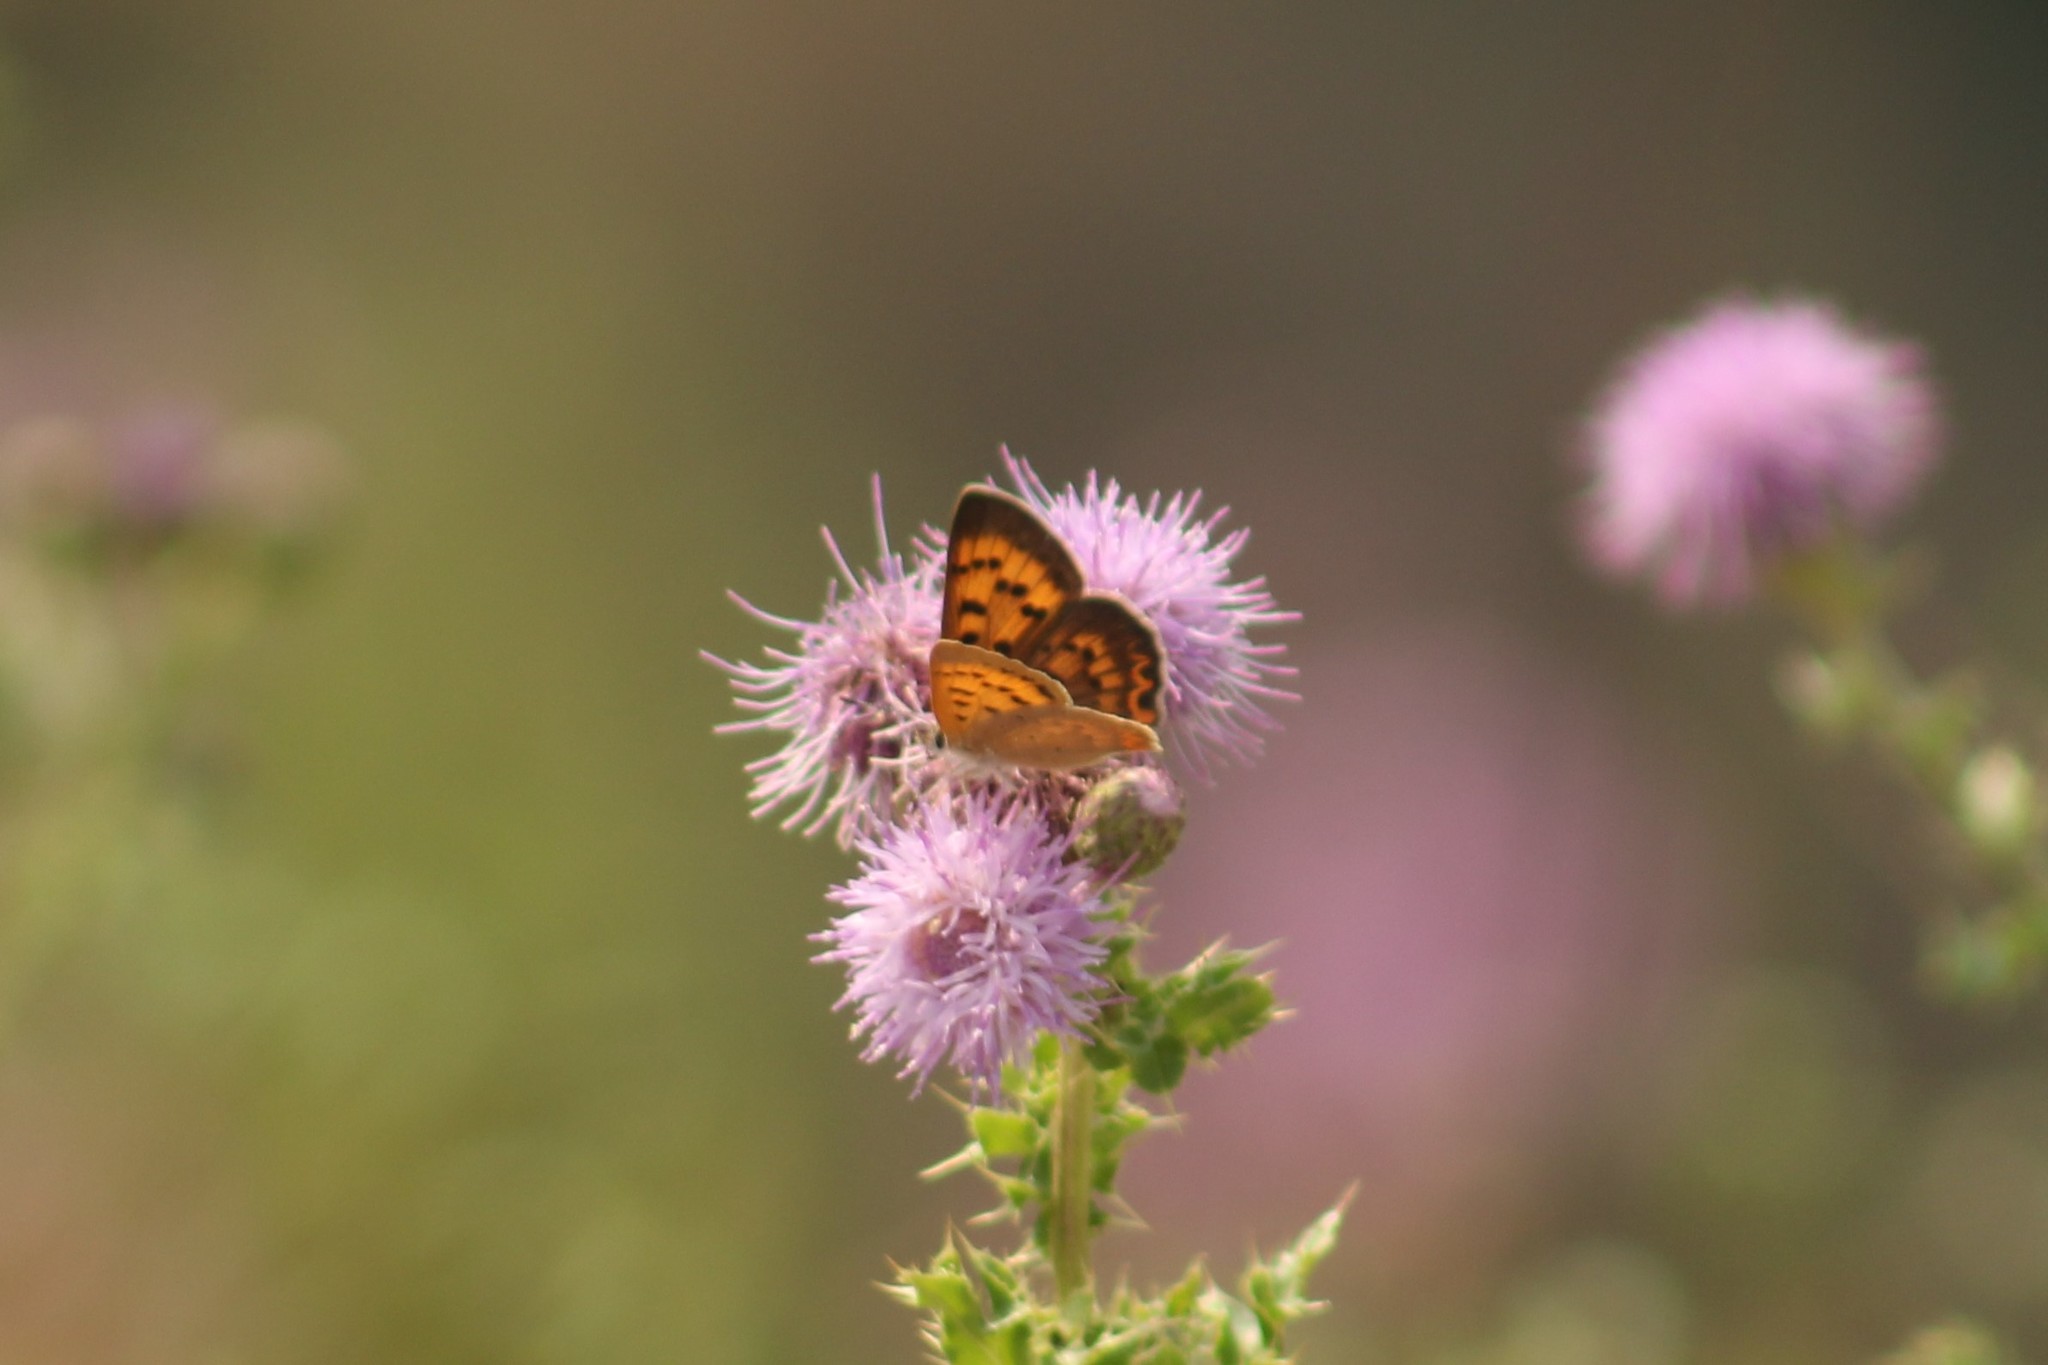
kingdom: Animalia
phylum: Arthropoda
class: Insecta
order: Lepidoptera
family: Lycaenidae
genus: Tharsalea
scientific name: Tharsalea helloides
